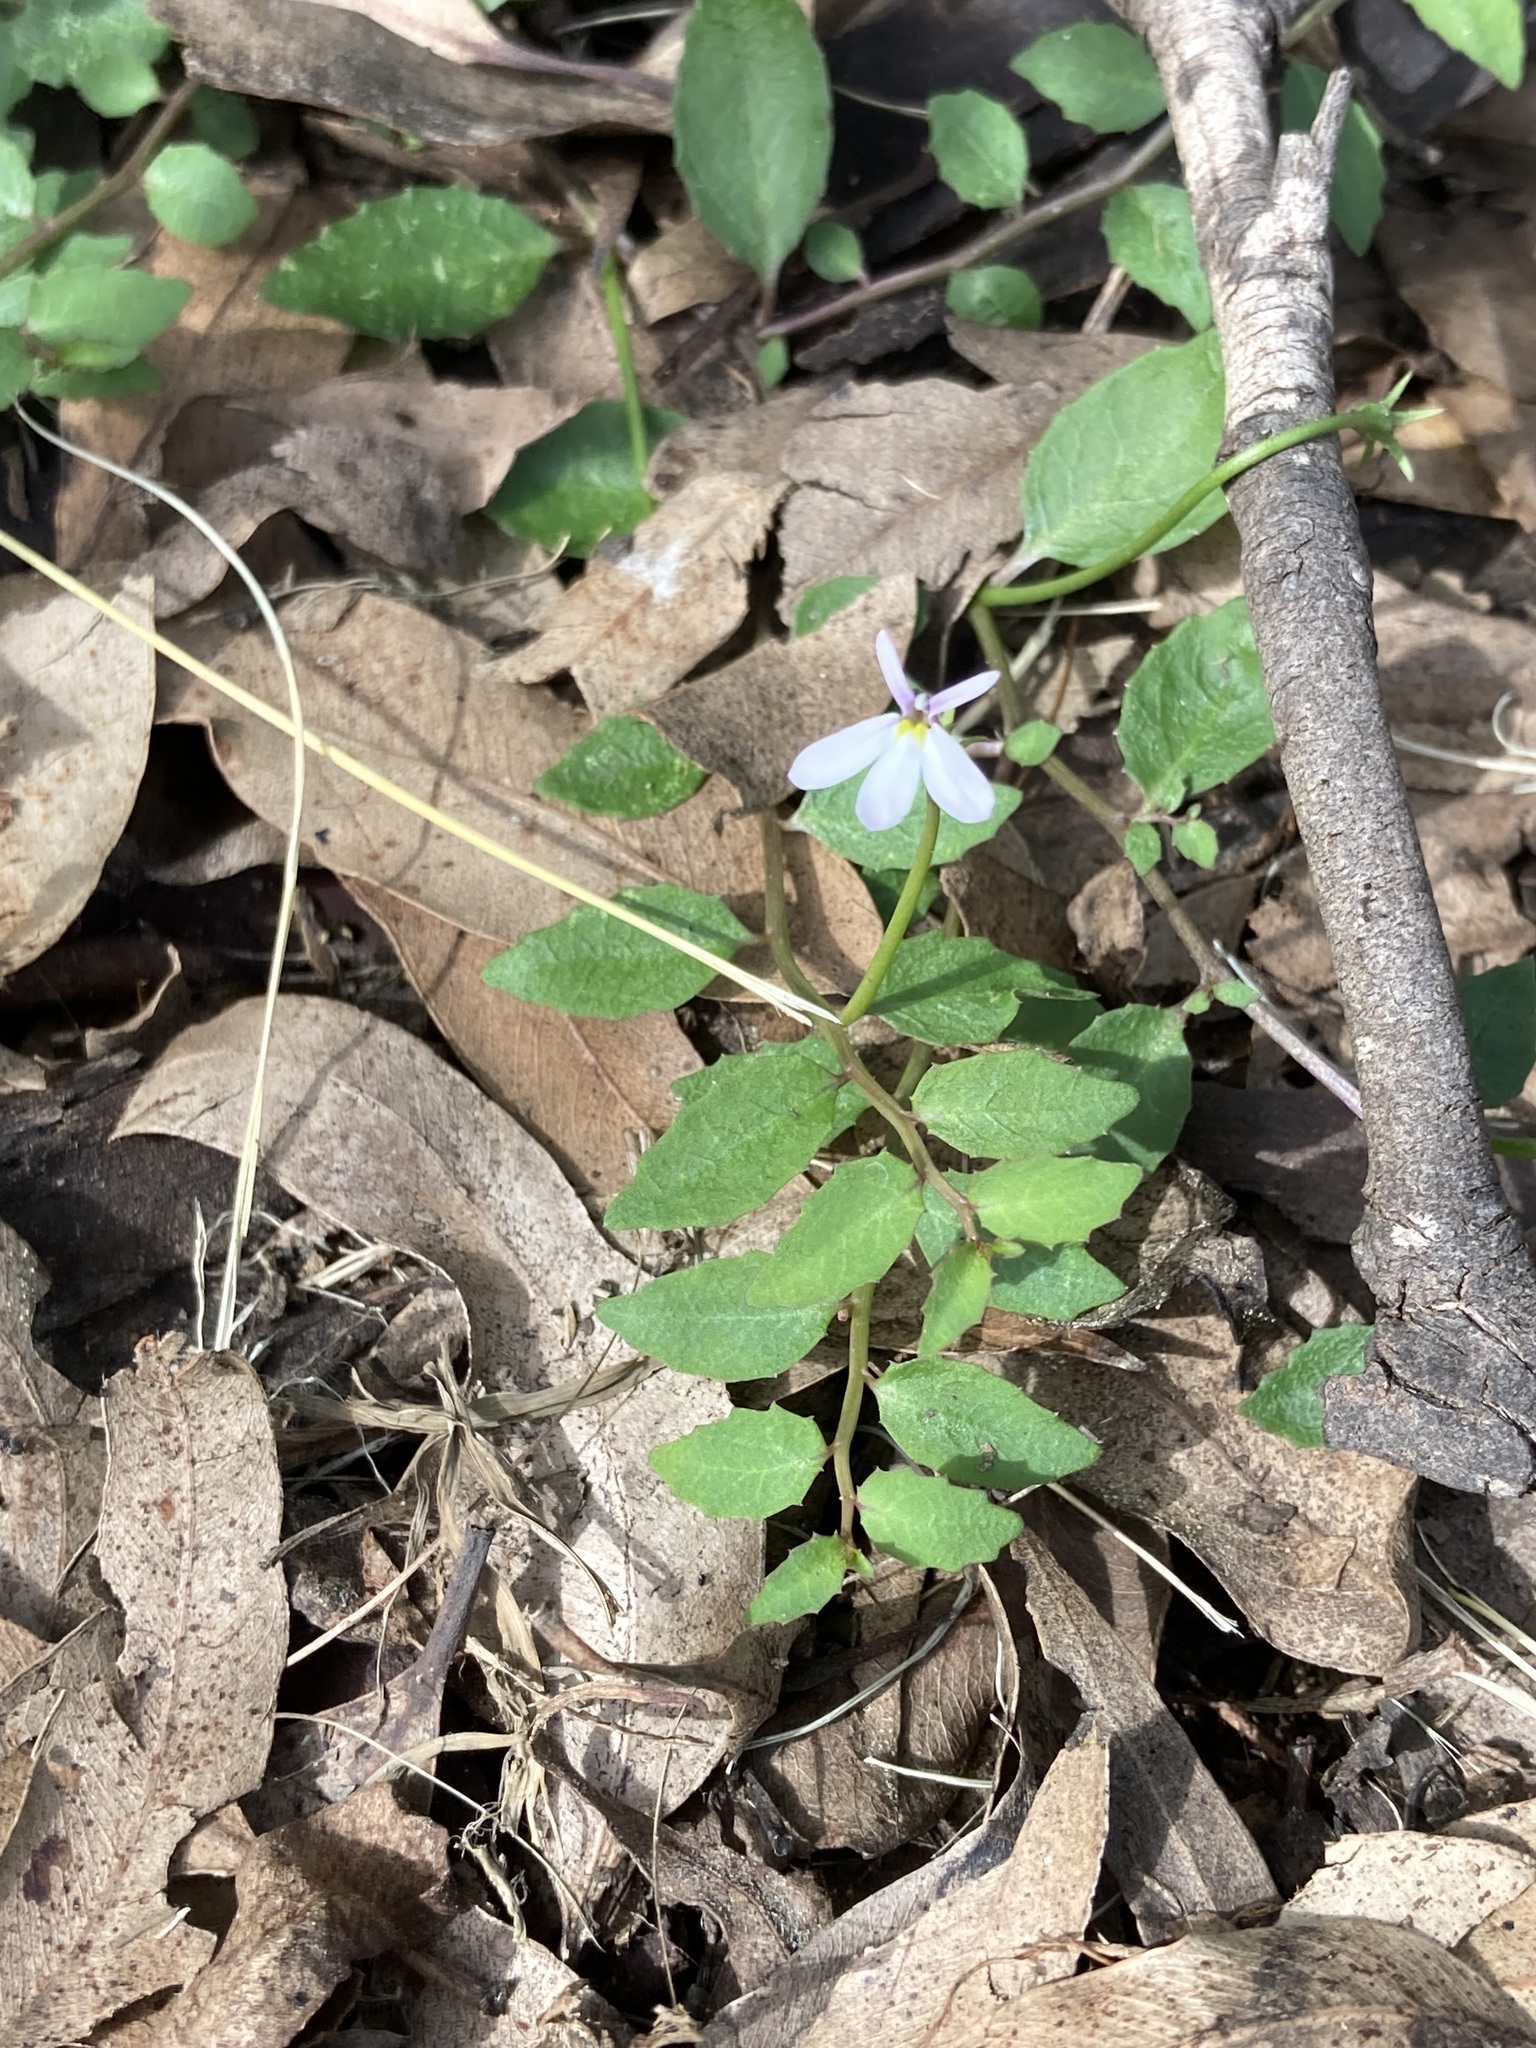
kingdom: Plantae
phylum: Tracheophyta
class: Magnoliopsida
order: Asterales
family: Campanulaceae
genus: Lobelia
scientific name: Lobelia purpurascens
